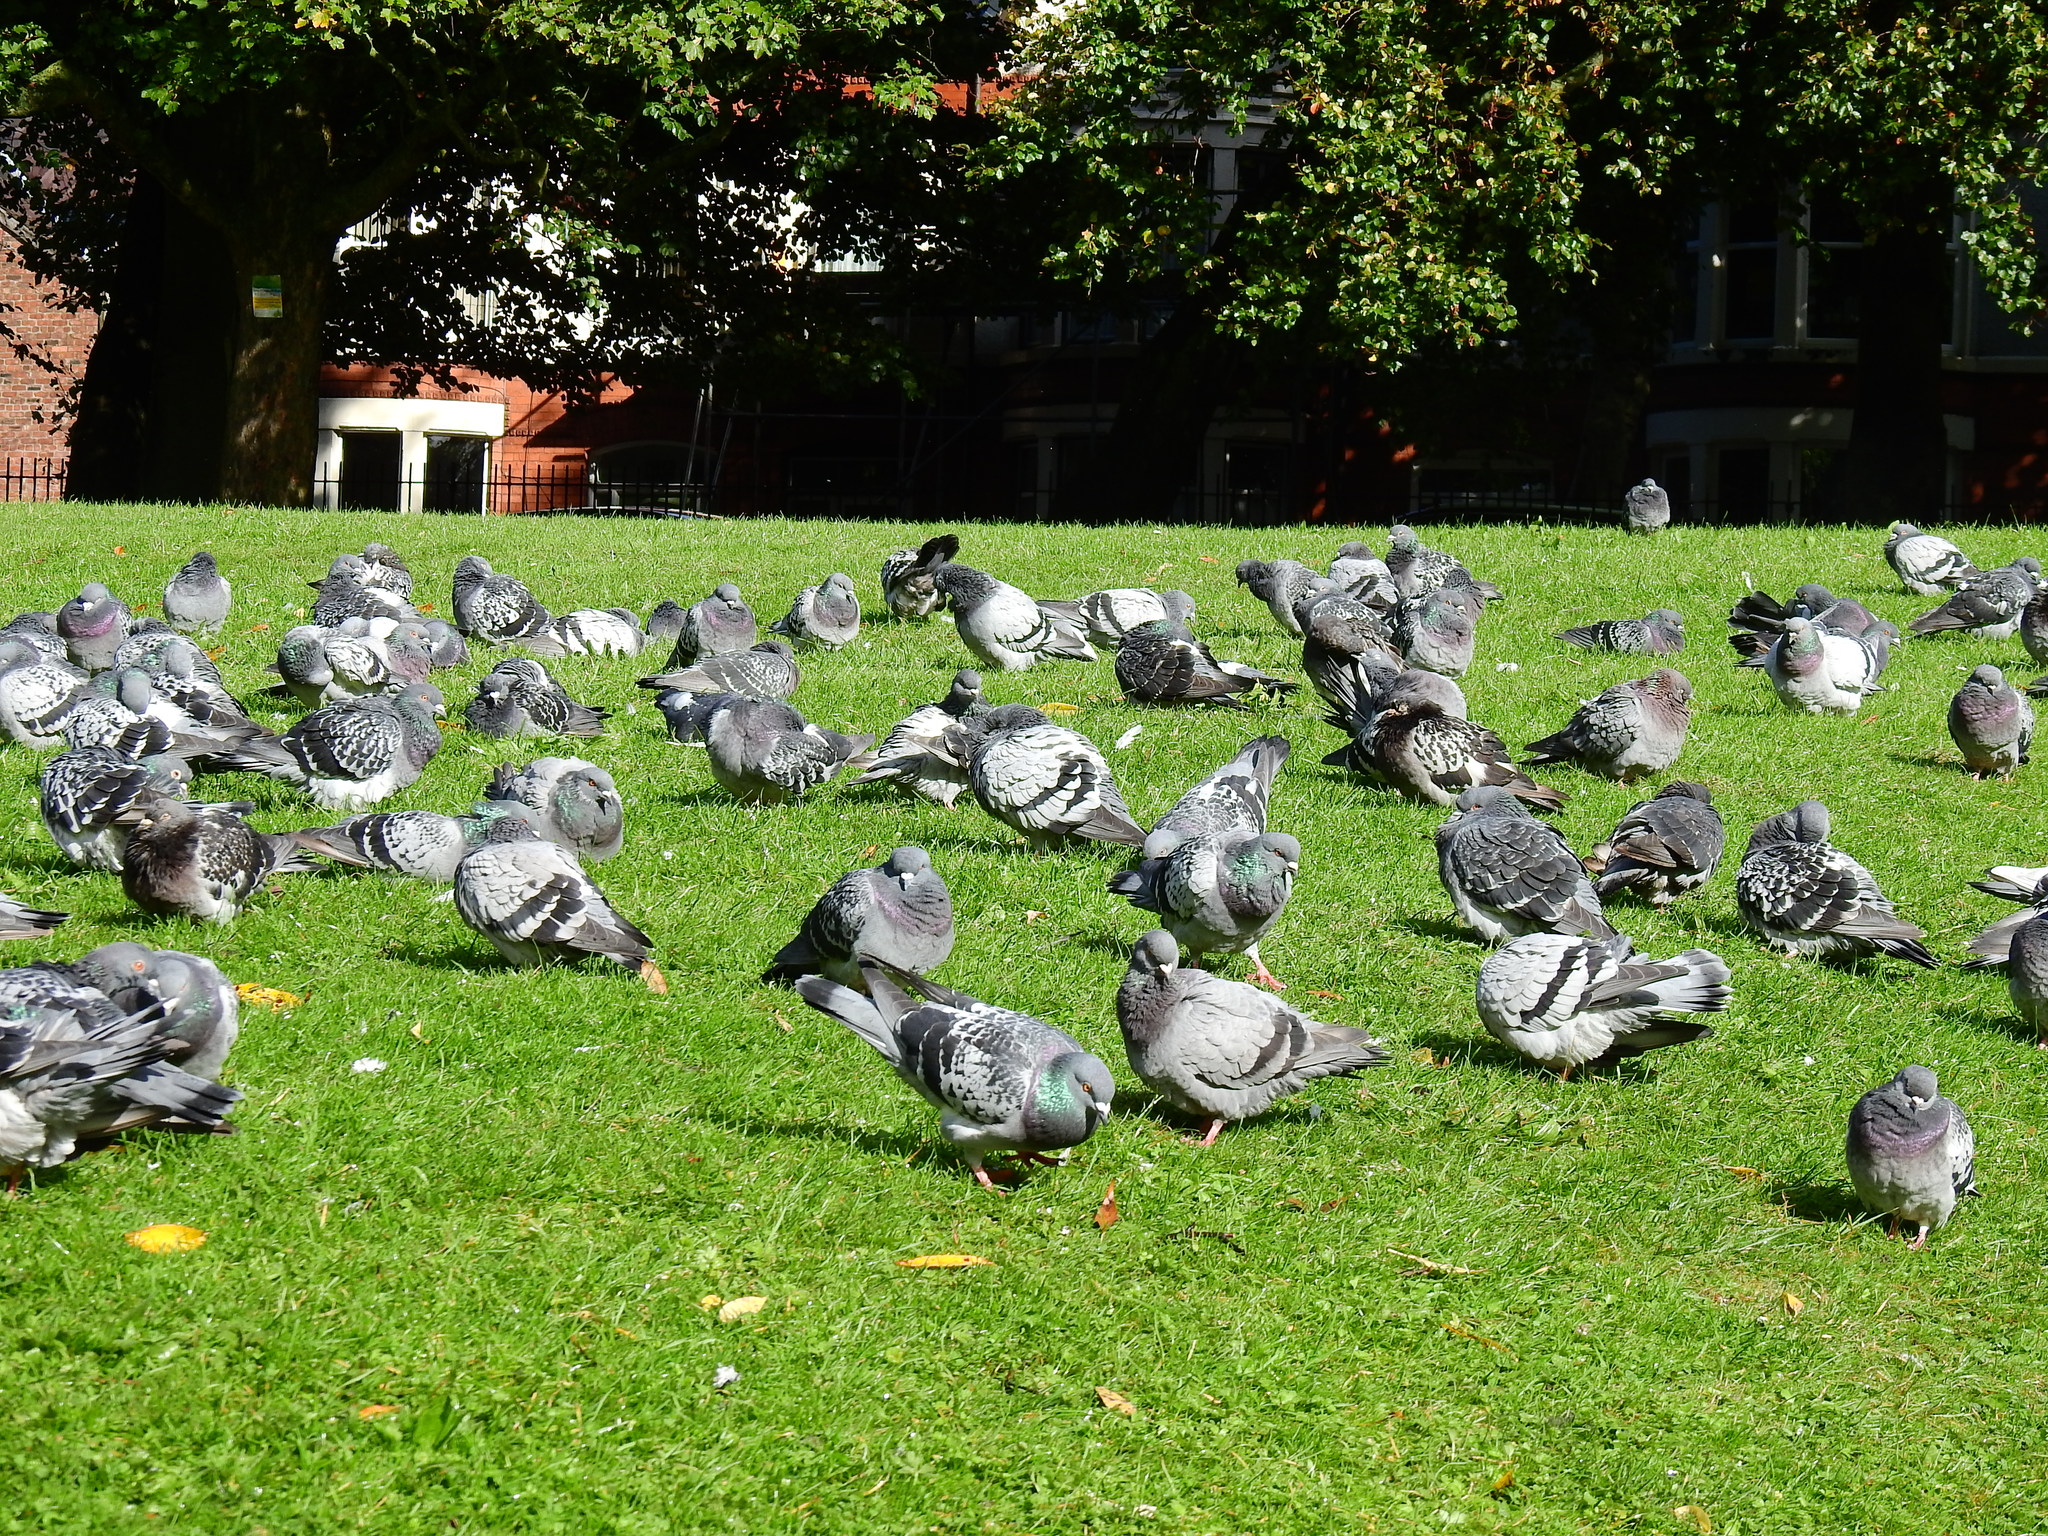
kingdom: Animalia
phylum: Chordata
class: Aves
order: Columbiformes
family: Columbidae
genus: Columba
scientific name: Columba livia
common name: Rock pigeon
